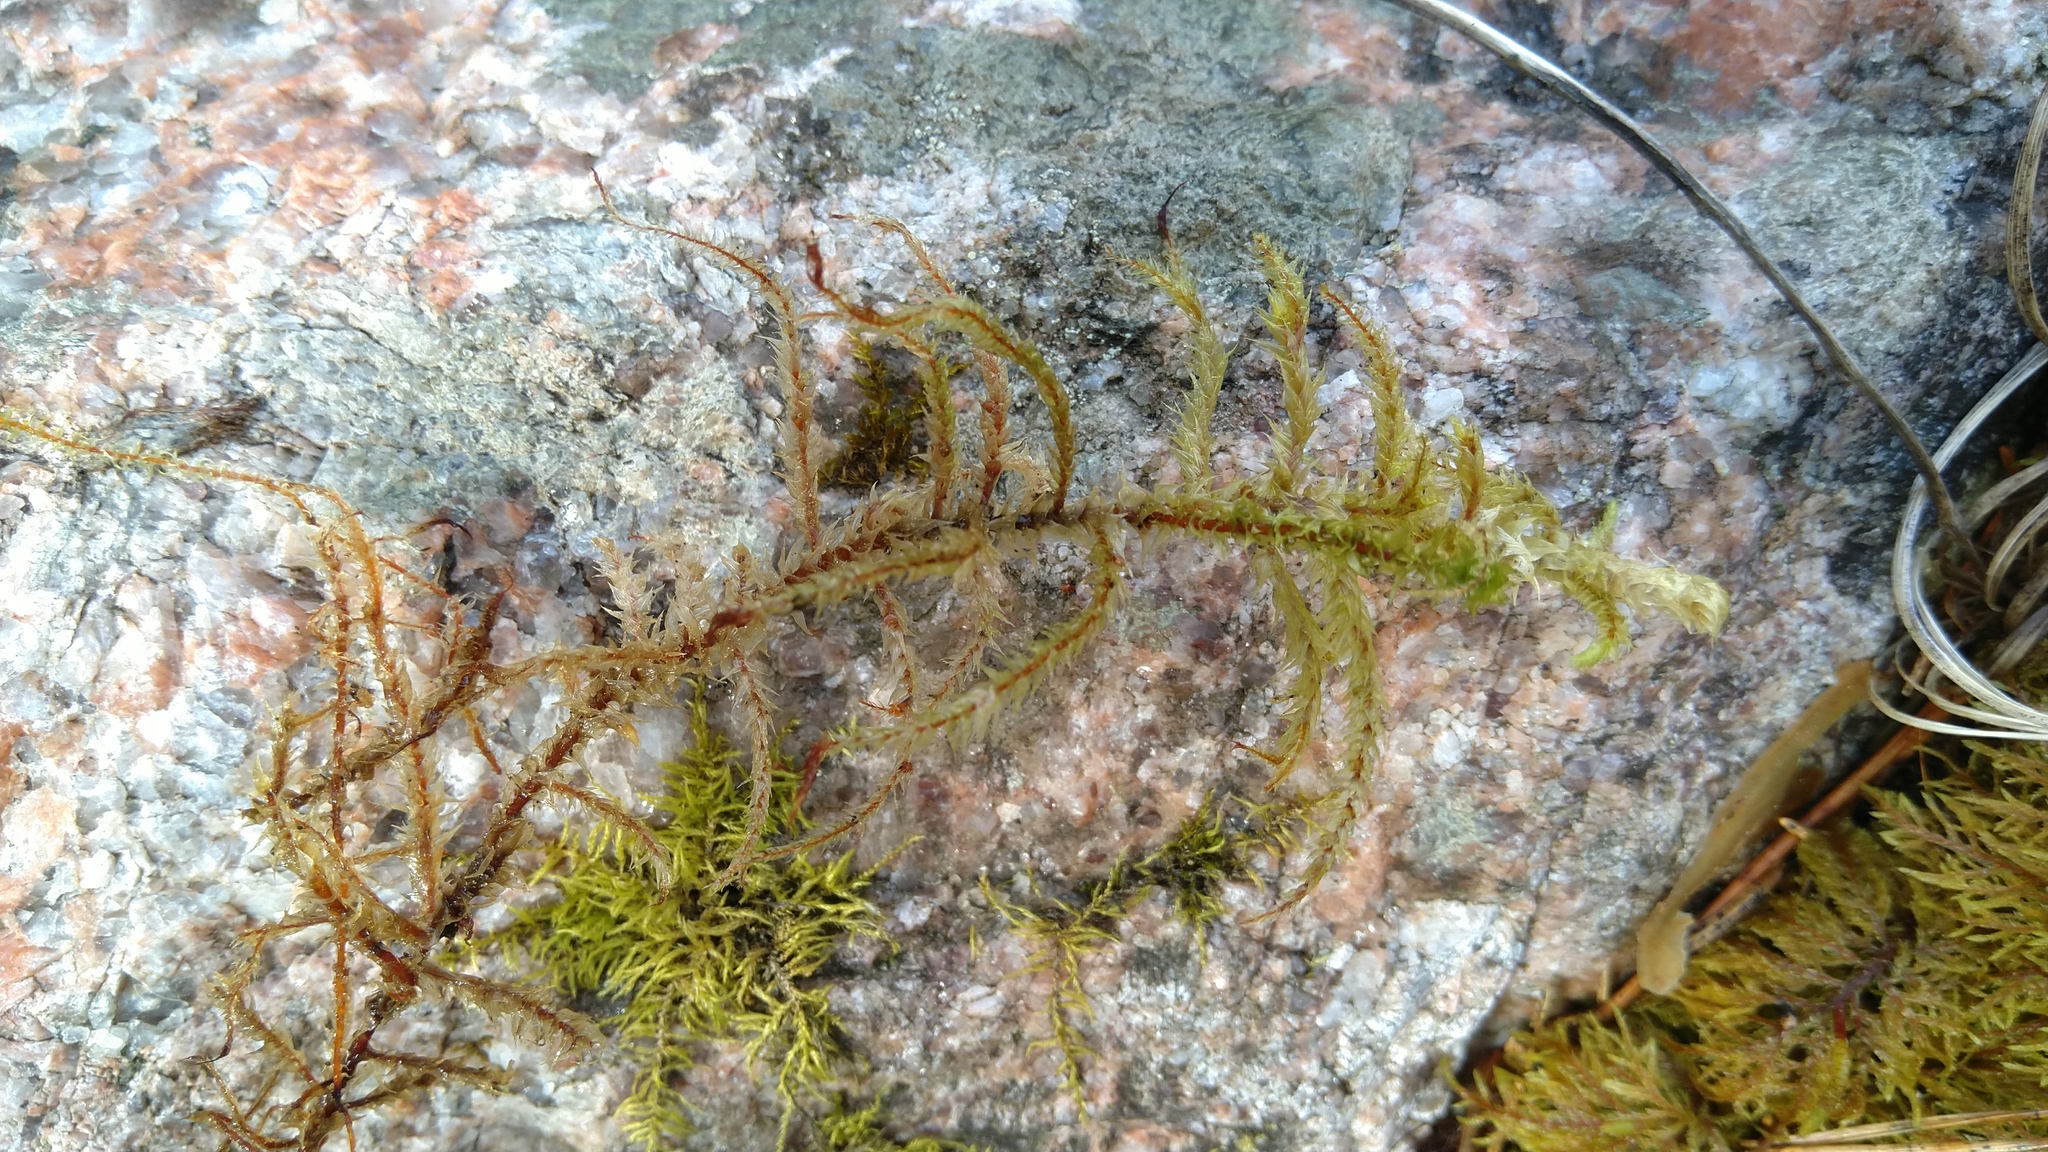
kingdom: Plantae
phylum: Bryophyta
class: Bryopsida
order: Hypnales
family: Hylocomiaceae
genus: Hylocomiadelphus
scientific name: Hylocomiadelphus triquetrus
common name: Rough goose neck moss
